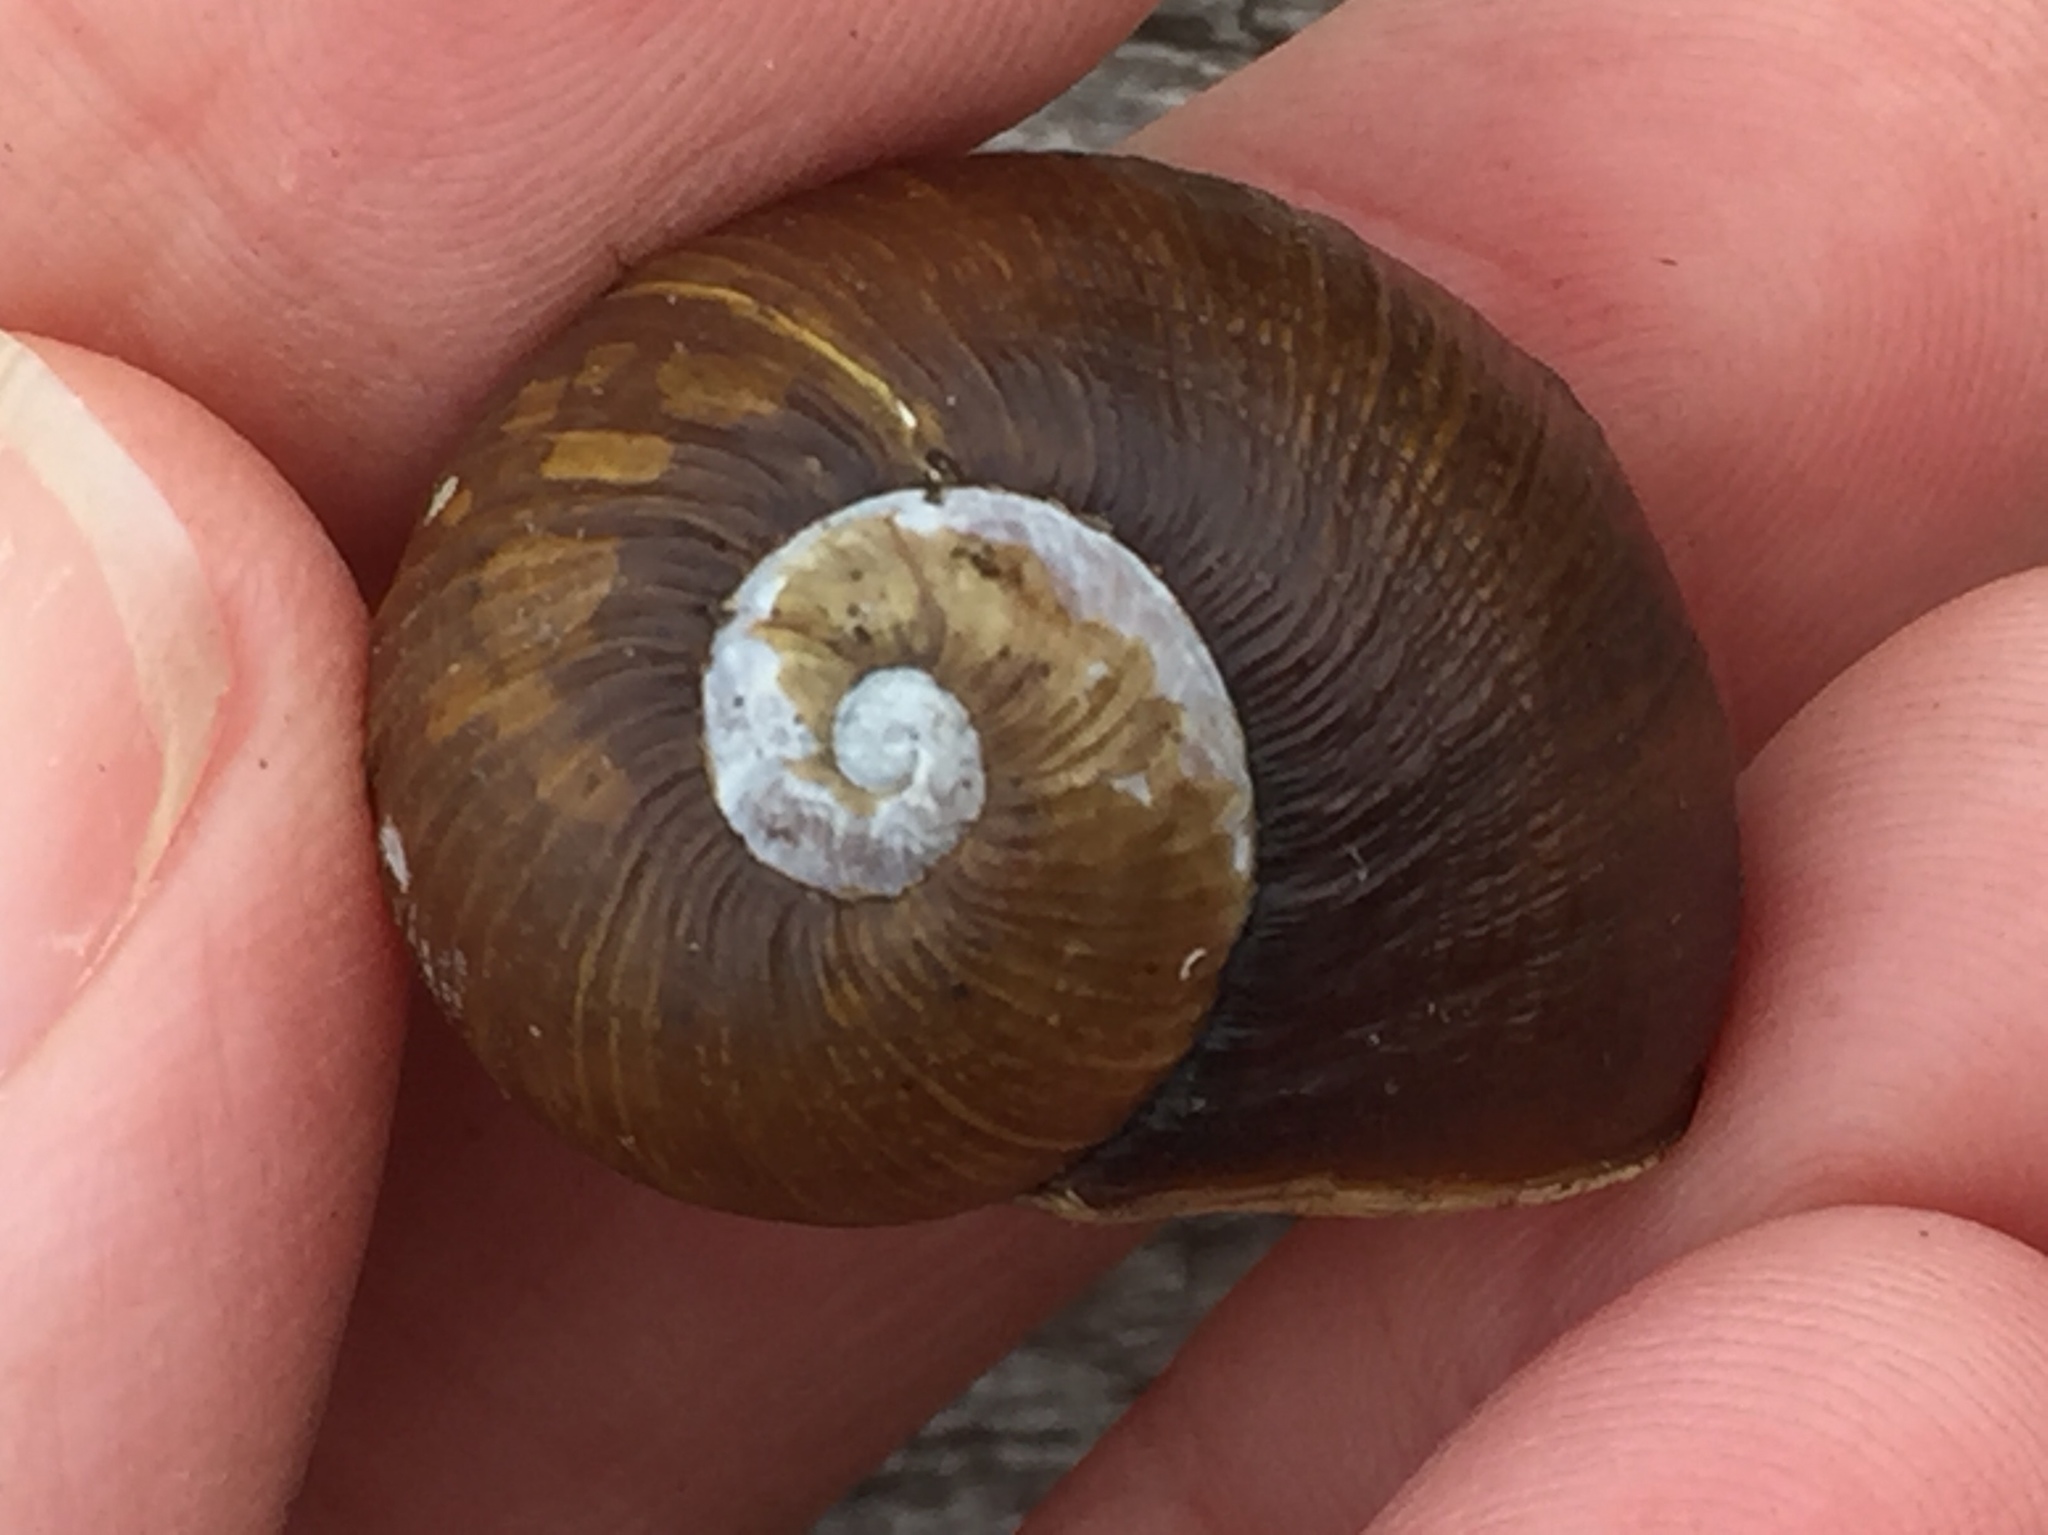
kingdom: Animalia
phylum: Mollusca
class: Gastropoda
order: Stylommatophora
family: Helicidae
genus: Cantareus
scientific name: Cantareus apertus
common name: Green gardensnail
